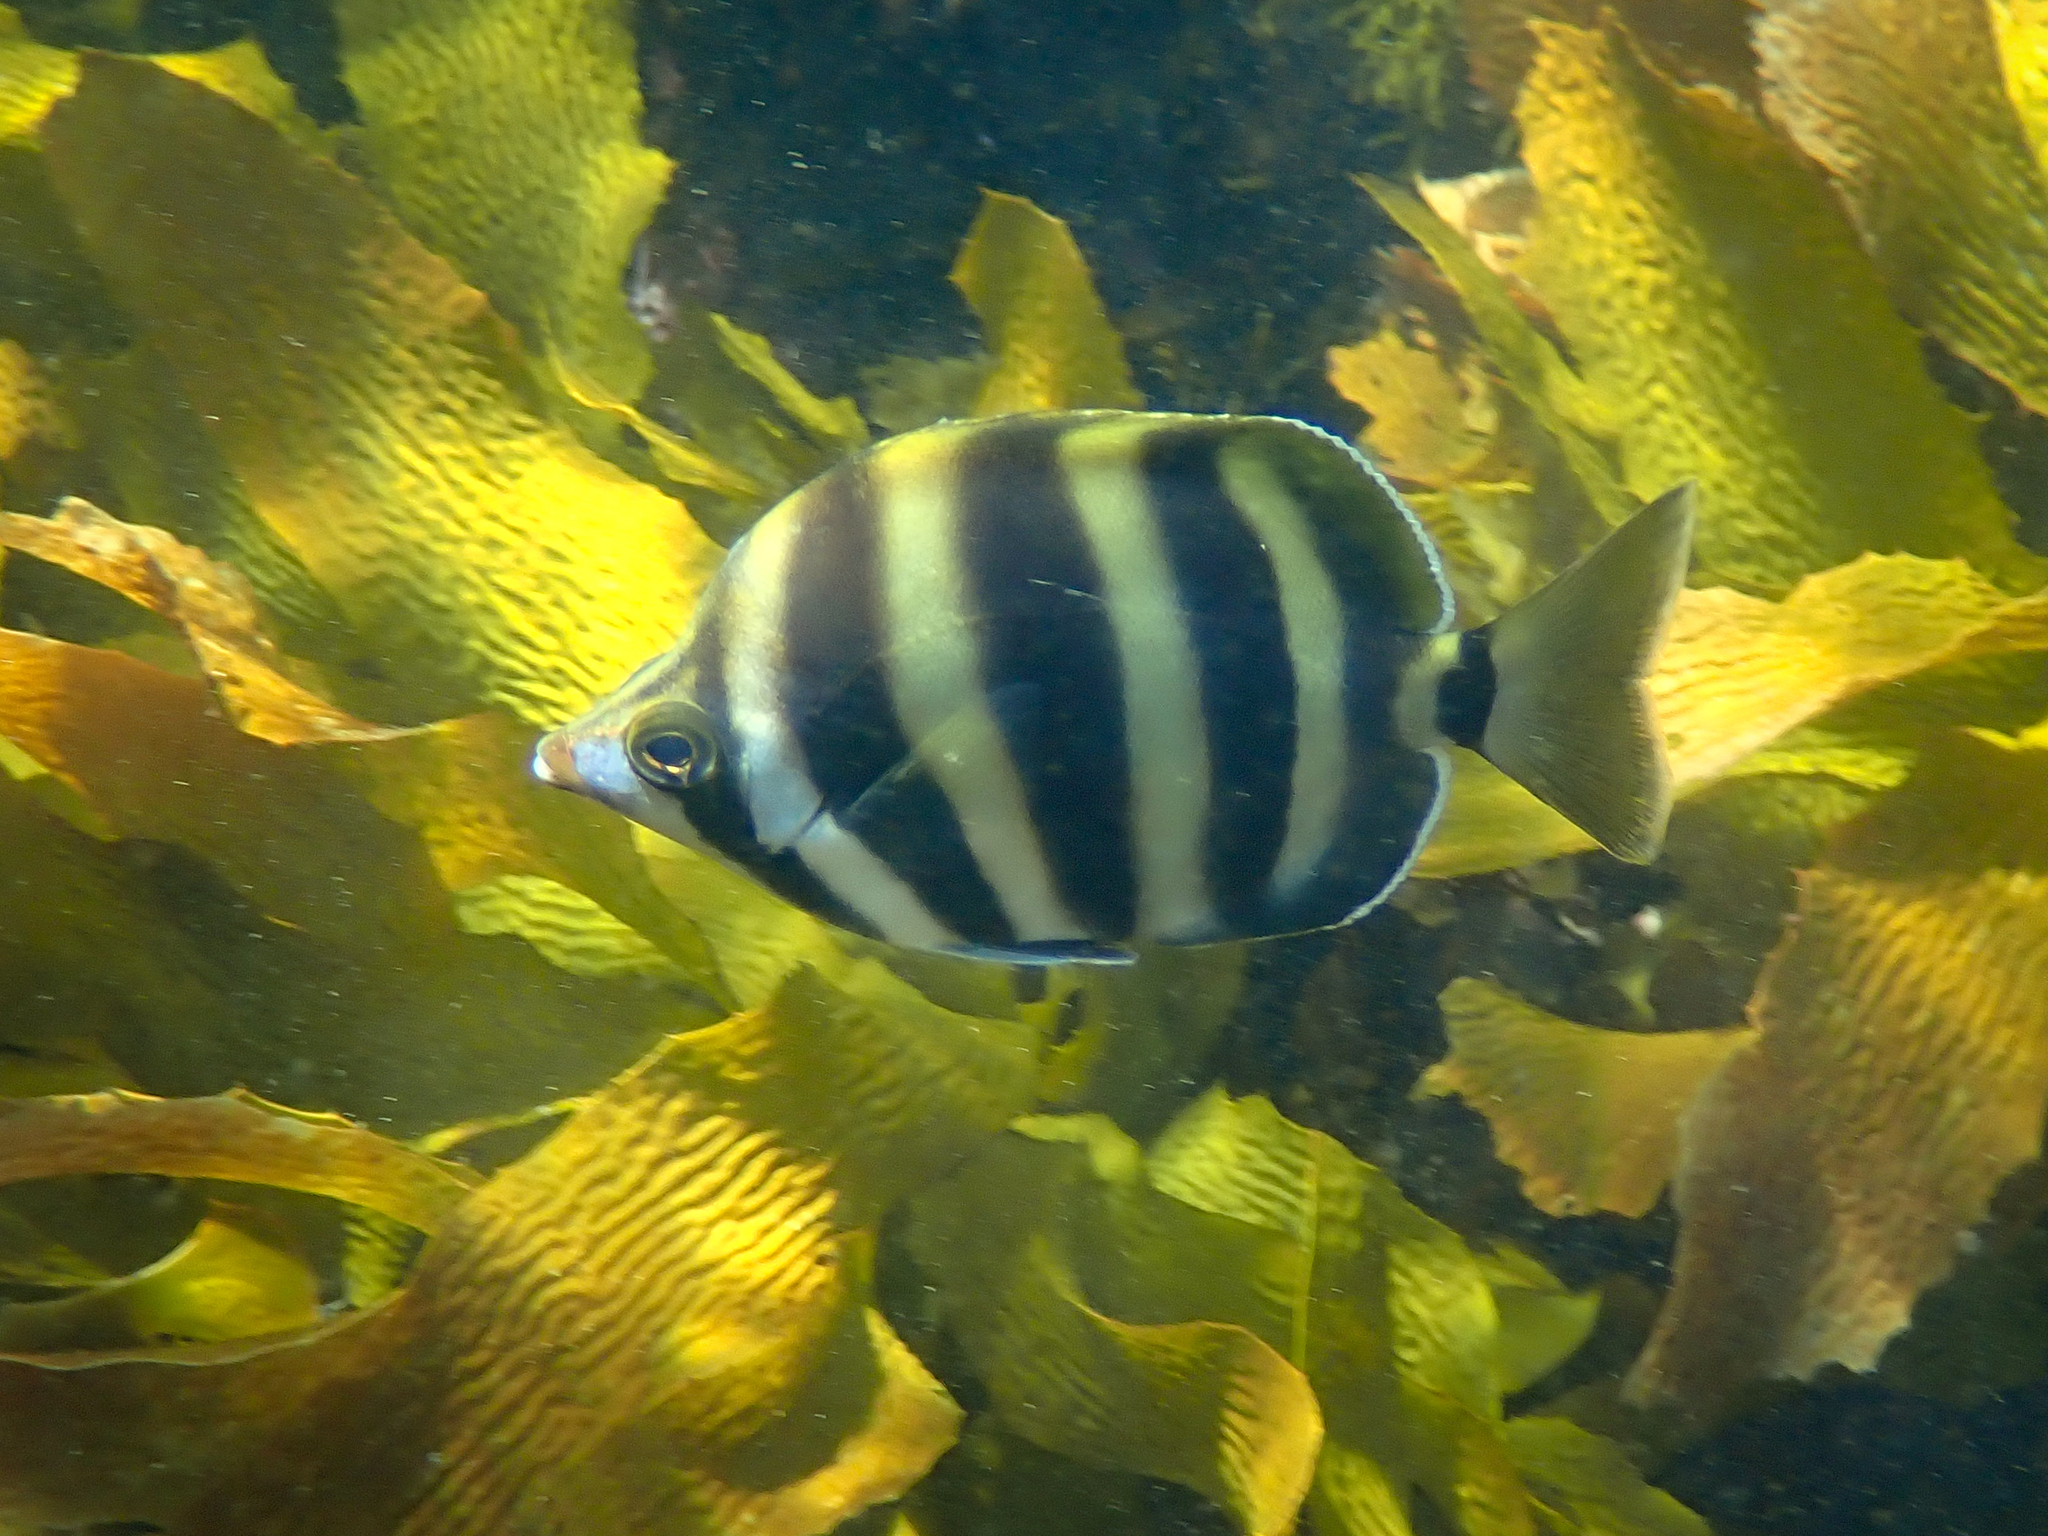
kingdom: Animalia
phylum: Chordata
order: Perciformes
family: Kyphosidae
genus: Tilodon
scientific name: Tilodon sexfasciatus
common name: Moonlighter
